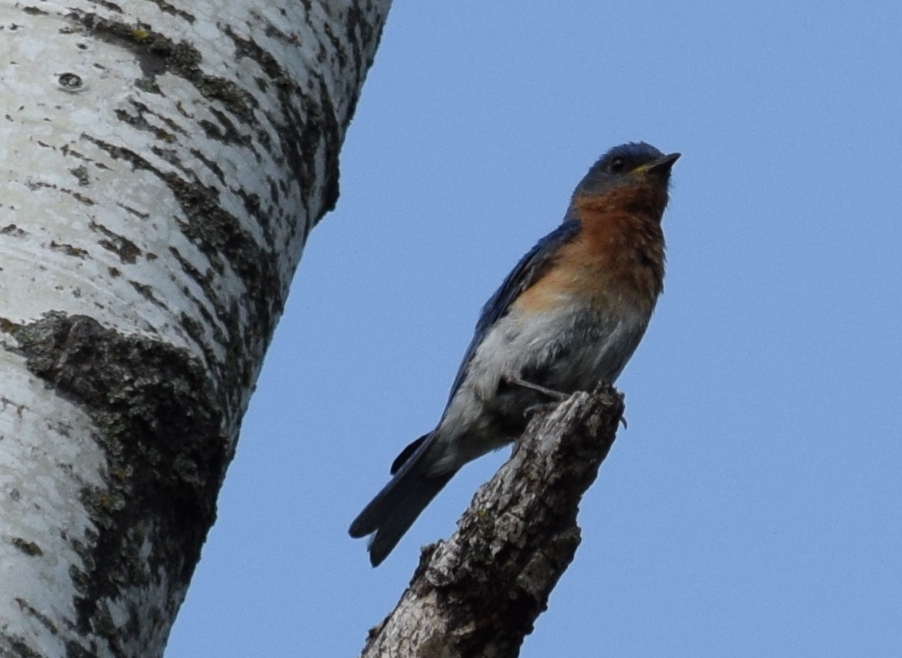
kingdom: Animalia
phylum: Chordata
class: Aves
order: Passeriformes
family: Turdidae
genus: Sialia
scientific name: Sialia sialis
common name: Eastern bluebird
